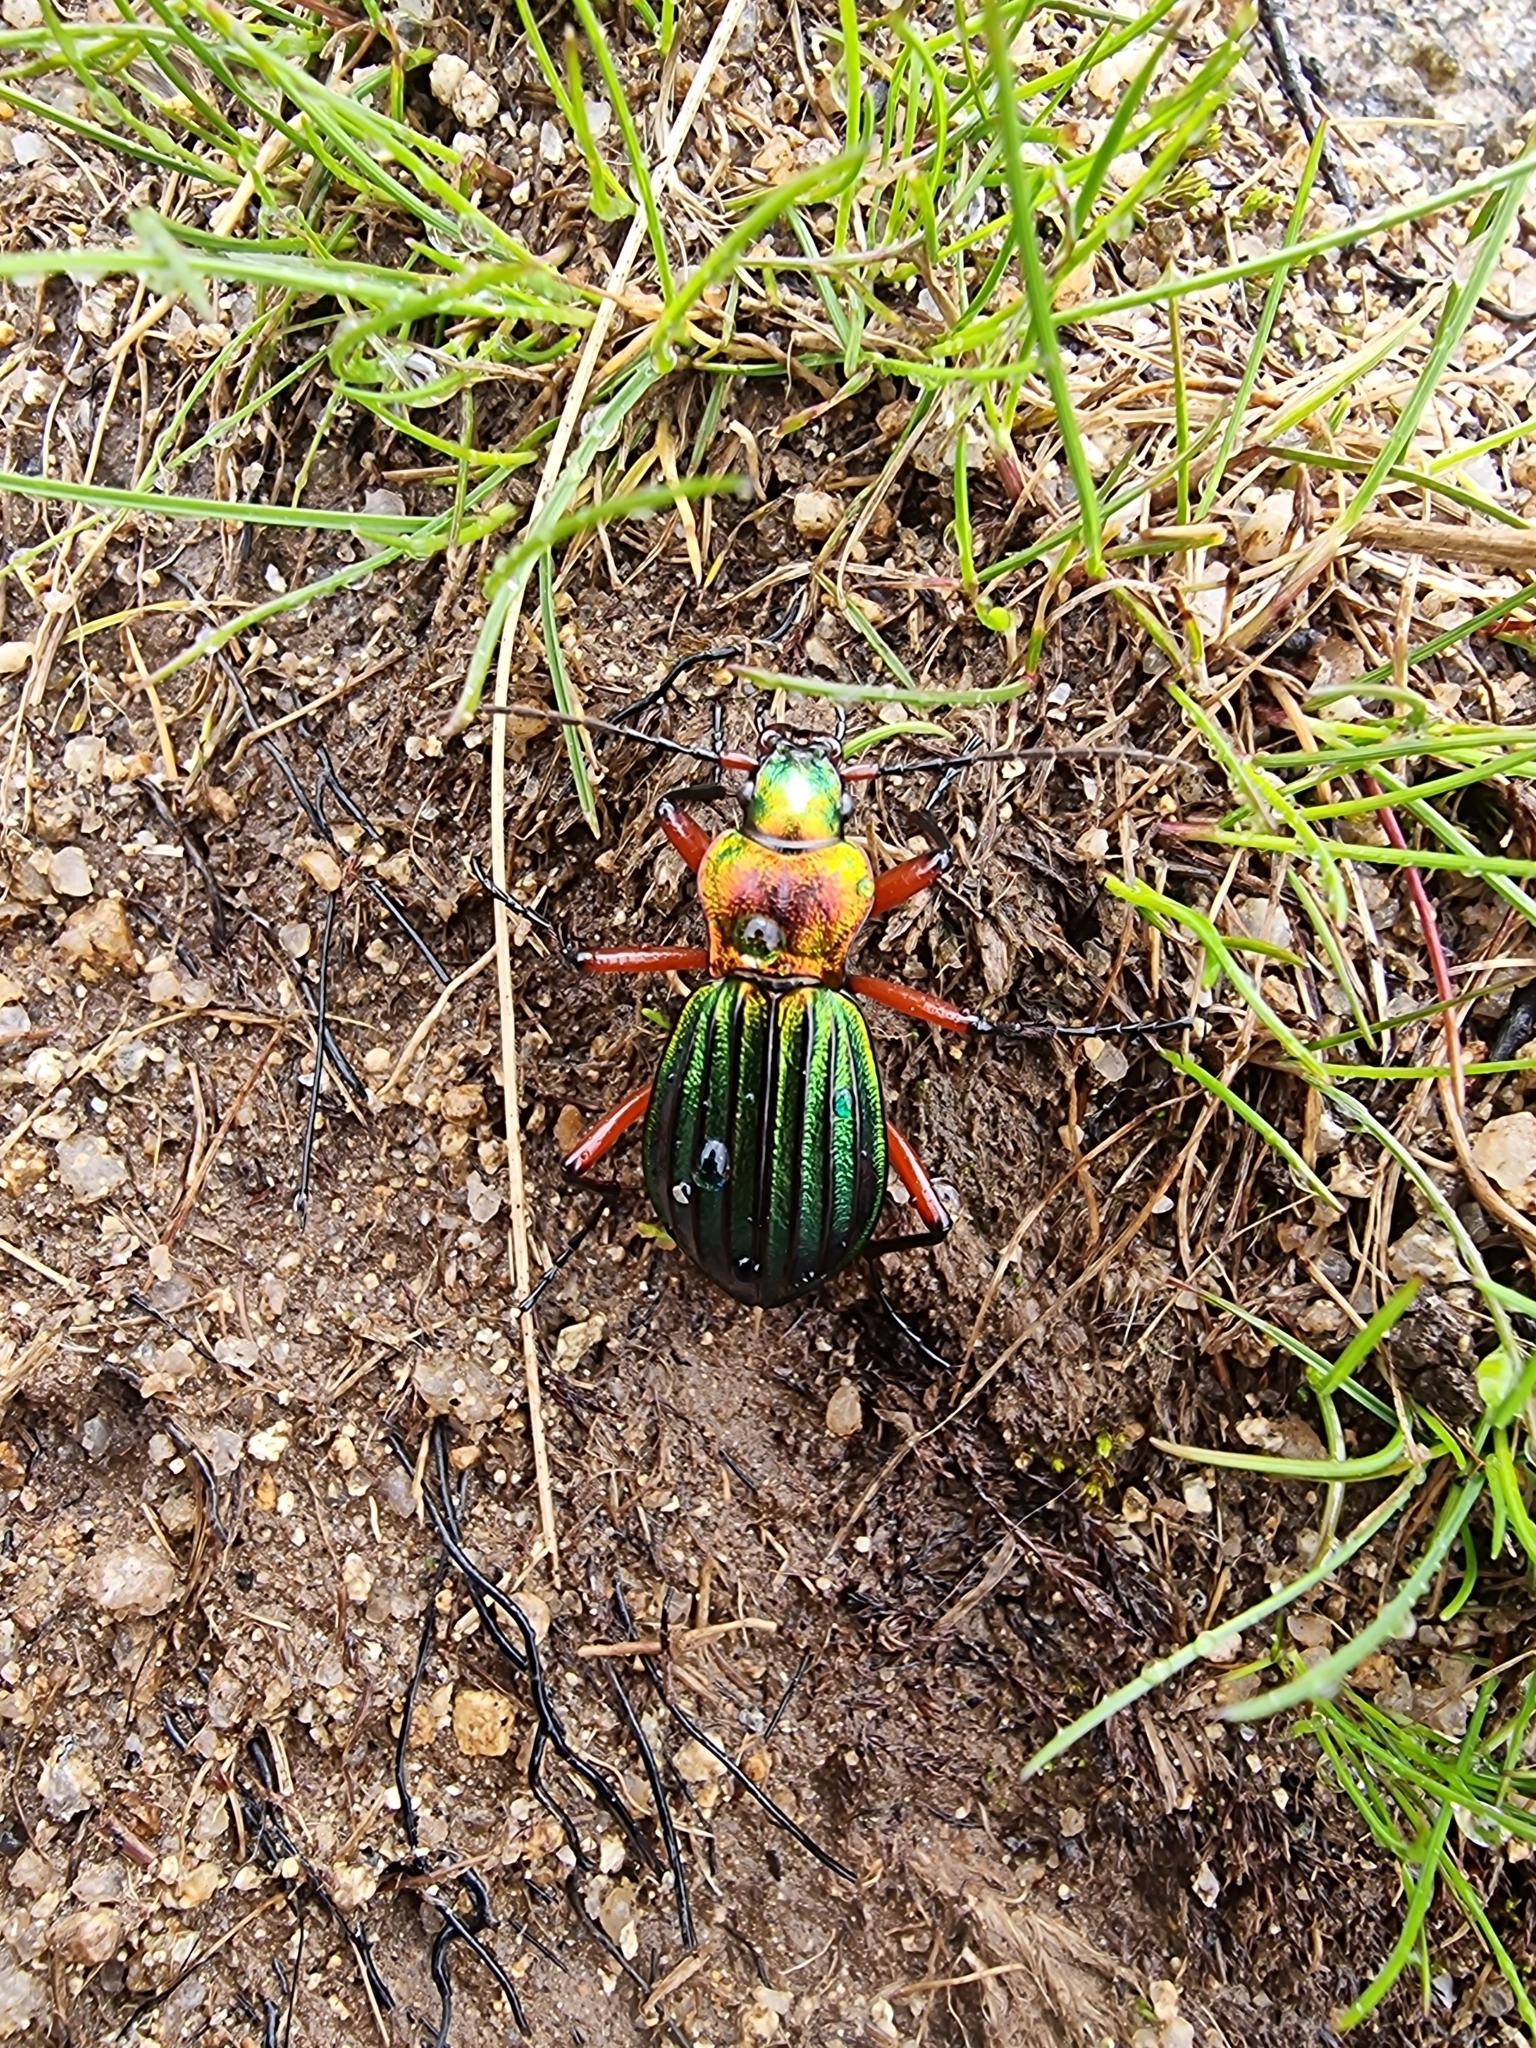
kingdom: Animalia
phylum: Arthropoda
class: Insecta
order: Coleoptera
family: Carabidae
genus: Carabus
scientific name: Carabus auronitens
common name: Carabus auronitens
